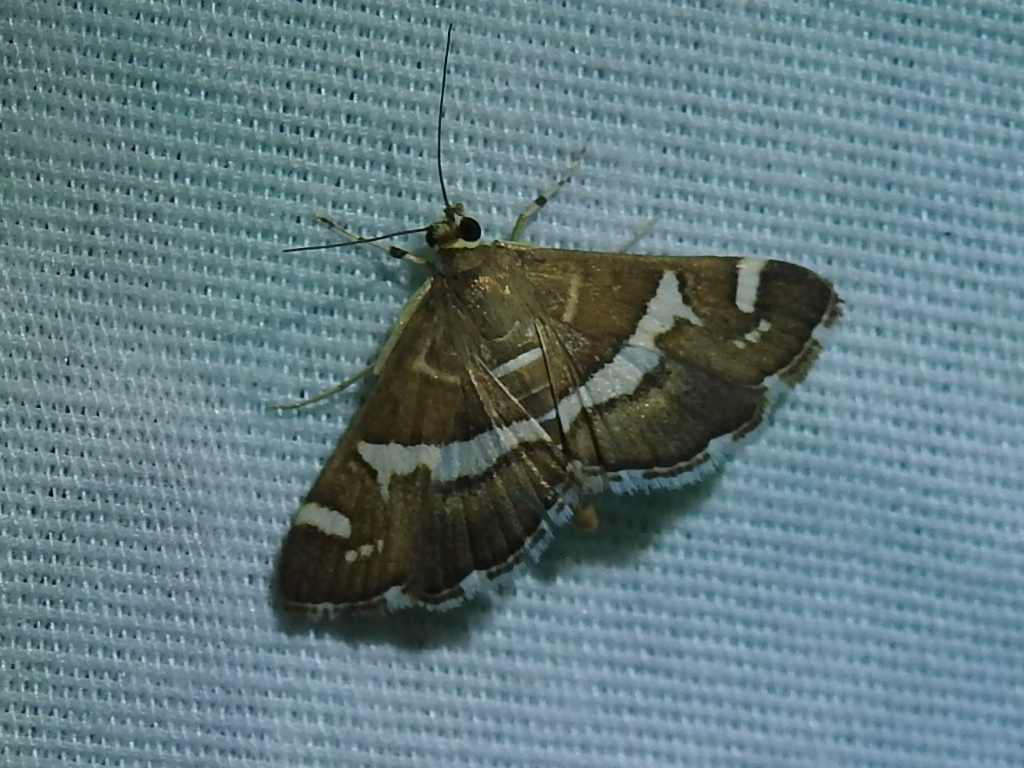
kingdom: Animalia
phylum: Arthropoda
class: Insecta
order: Lepidoptera
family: Crambidae
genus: Spoladea
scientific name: Spoladea recurvalis
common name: Beet webworm moth
